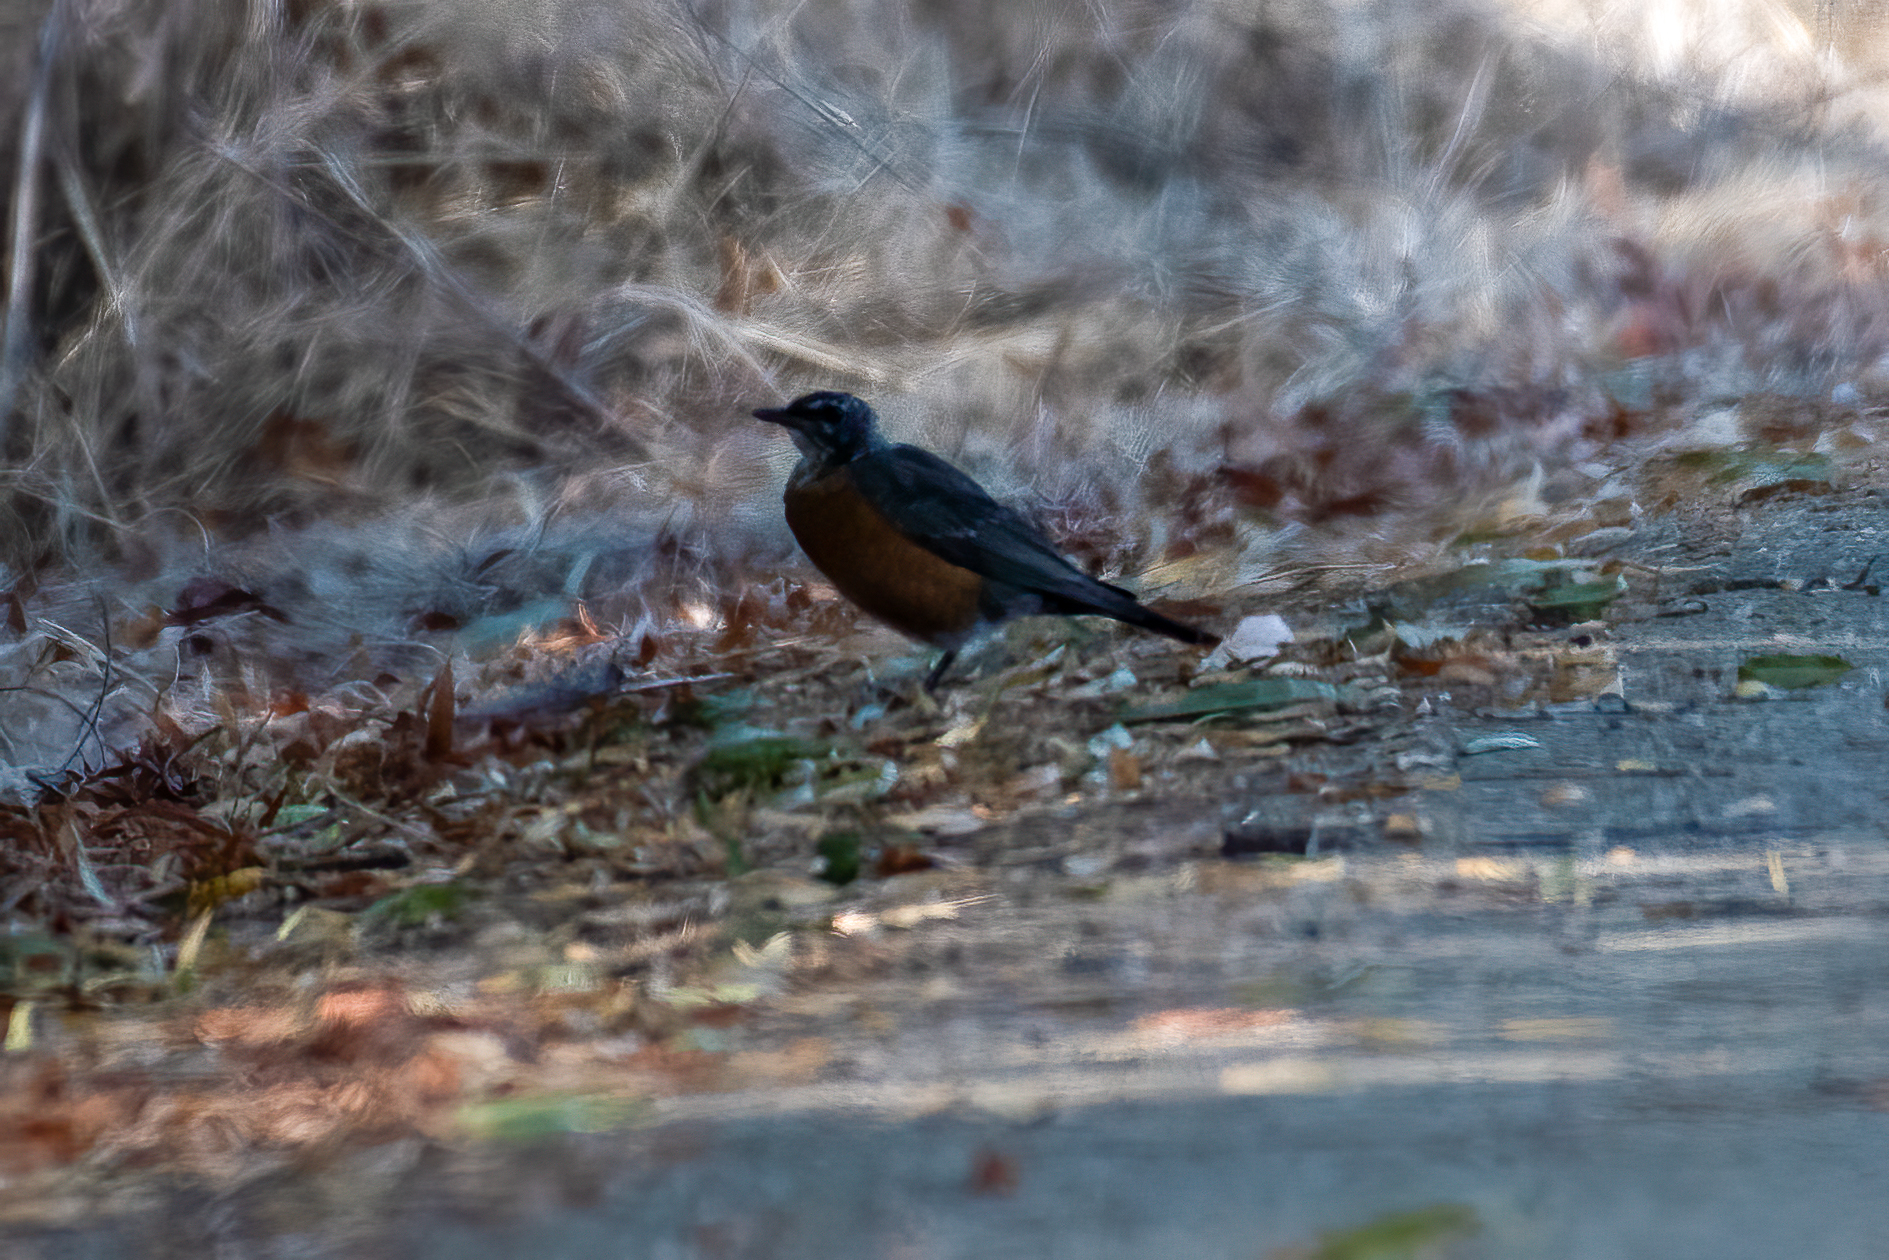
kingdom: Animalia
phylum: Chordata
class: Aves
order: Passeriformes
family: Turdidae
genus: Turdus
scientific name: Turdus migratorius
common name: American robin
